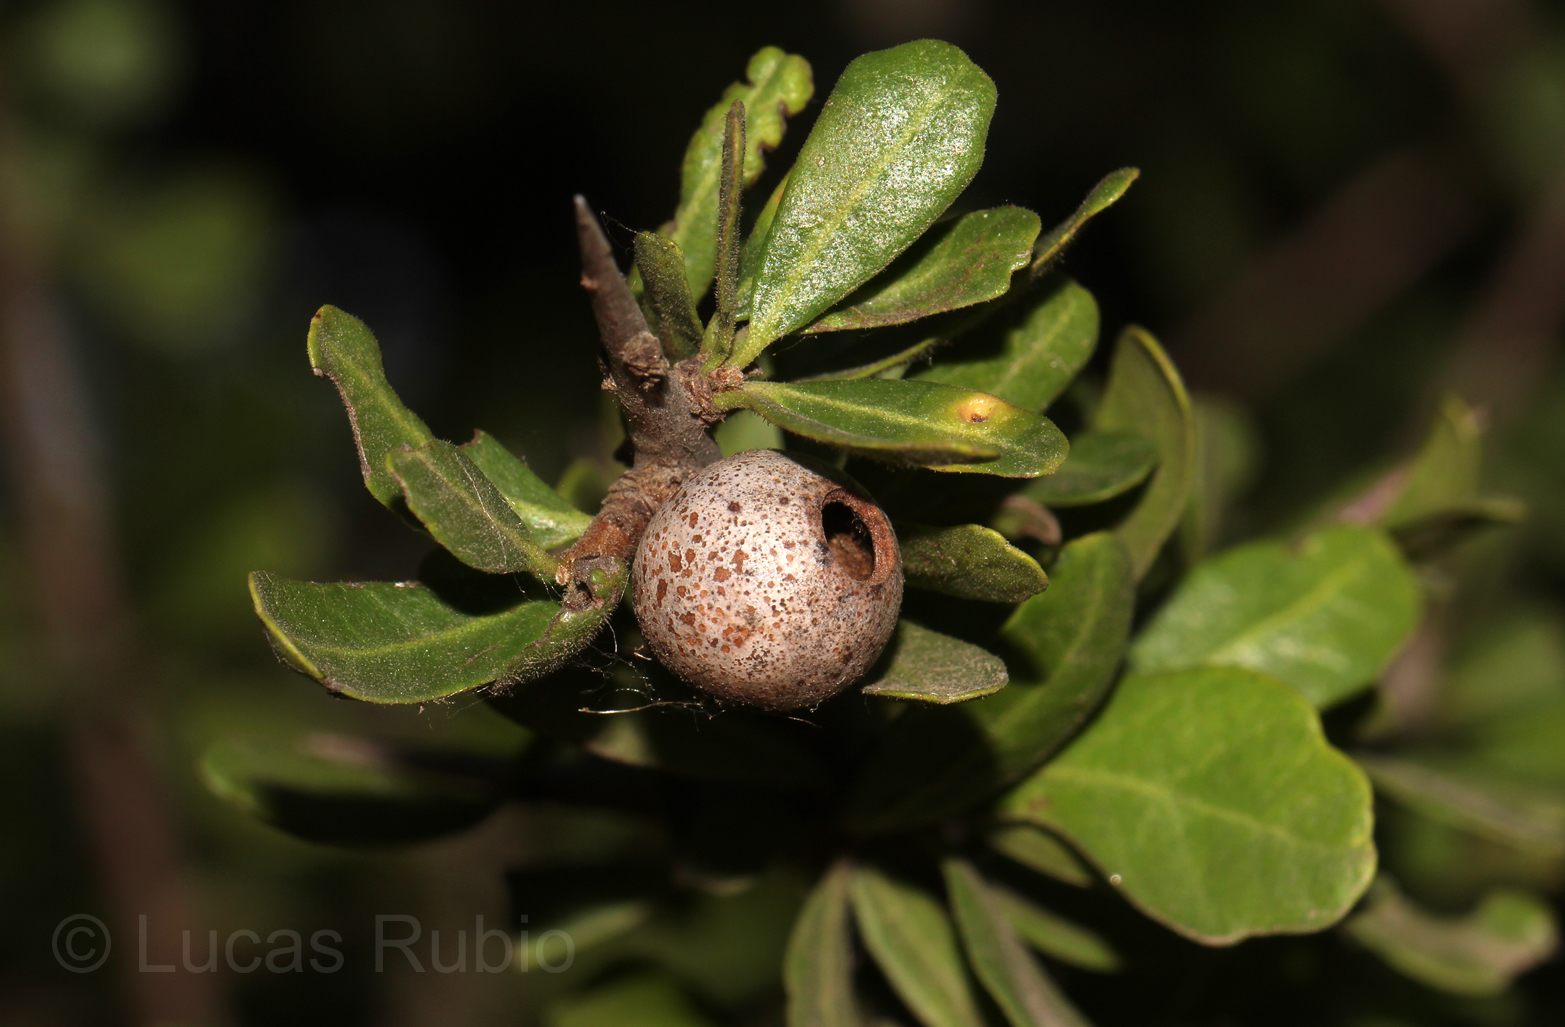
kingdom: Animalia
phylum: Arthropoda
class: Insecta
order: Lepidoptera
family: Cecidosidae
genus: Cecidoses
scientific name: Cecidoses eremita
